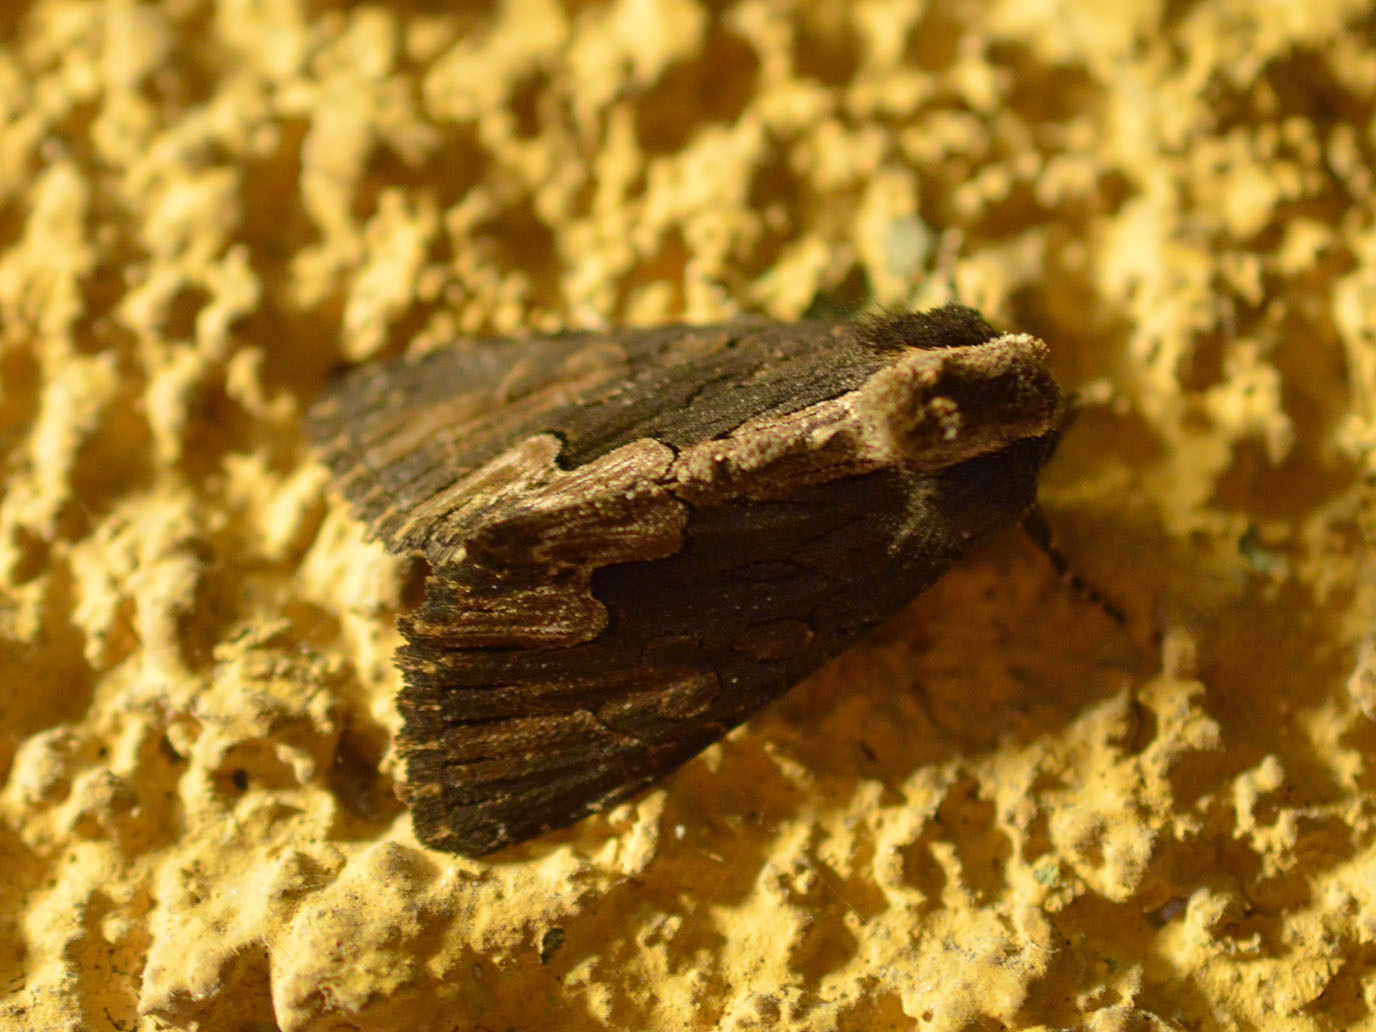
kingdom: Animalia
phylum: Arthropoda
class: Insecta
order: Lepidoptera
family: Noctuidae
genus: Dypterygia
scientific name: Dypterygia scabriuscula
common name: Bird's wing
